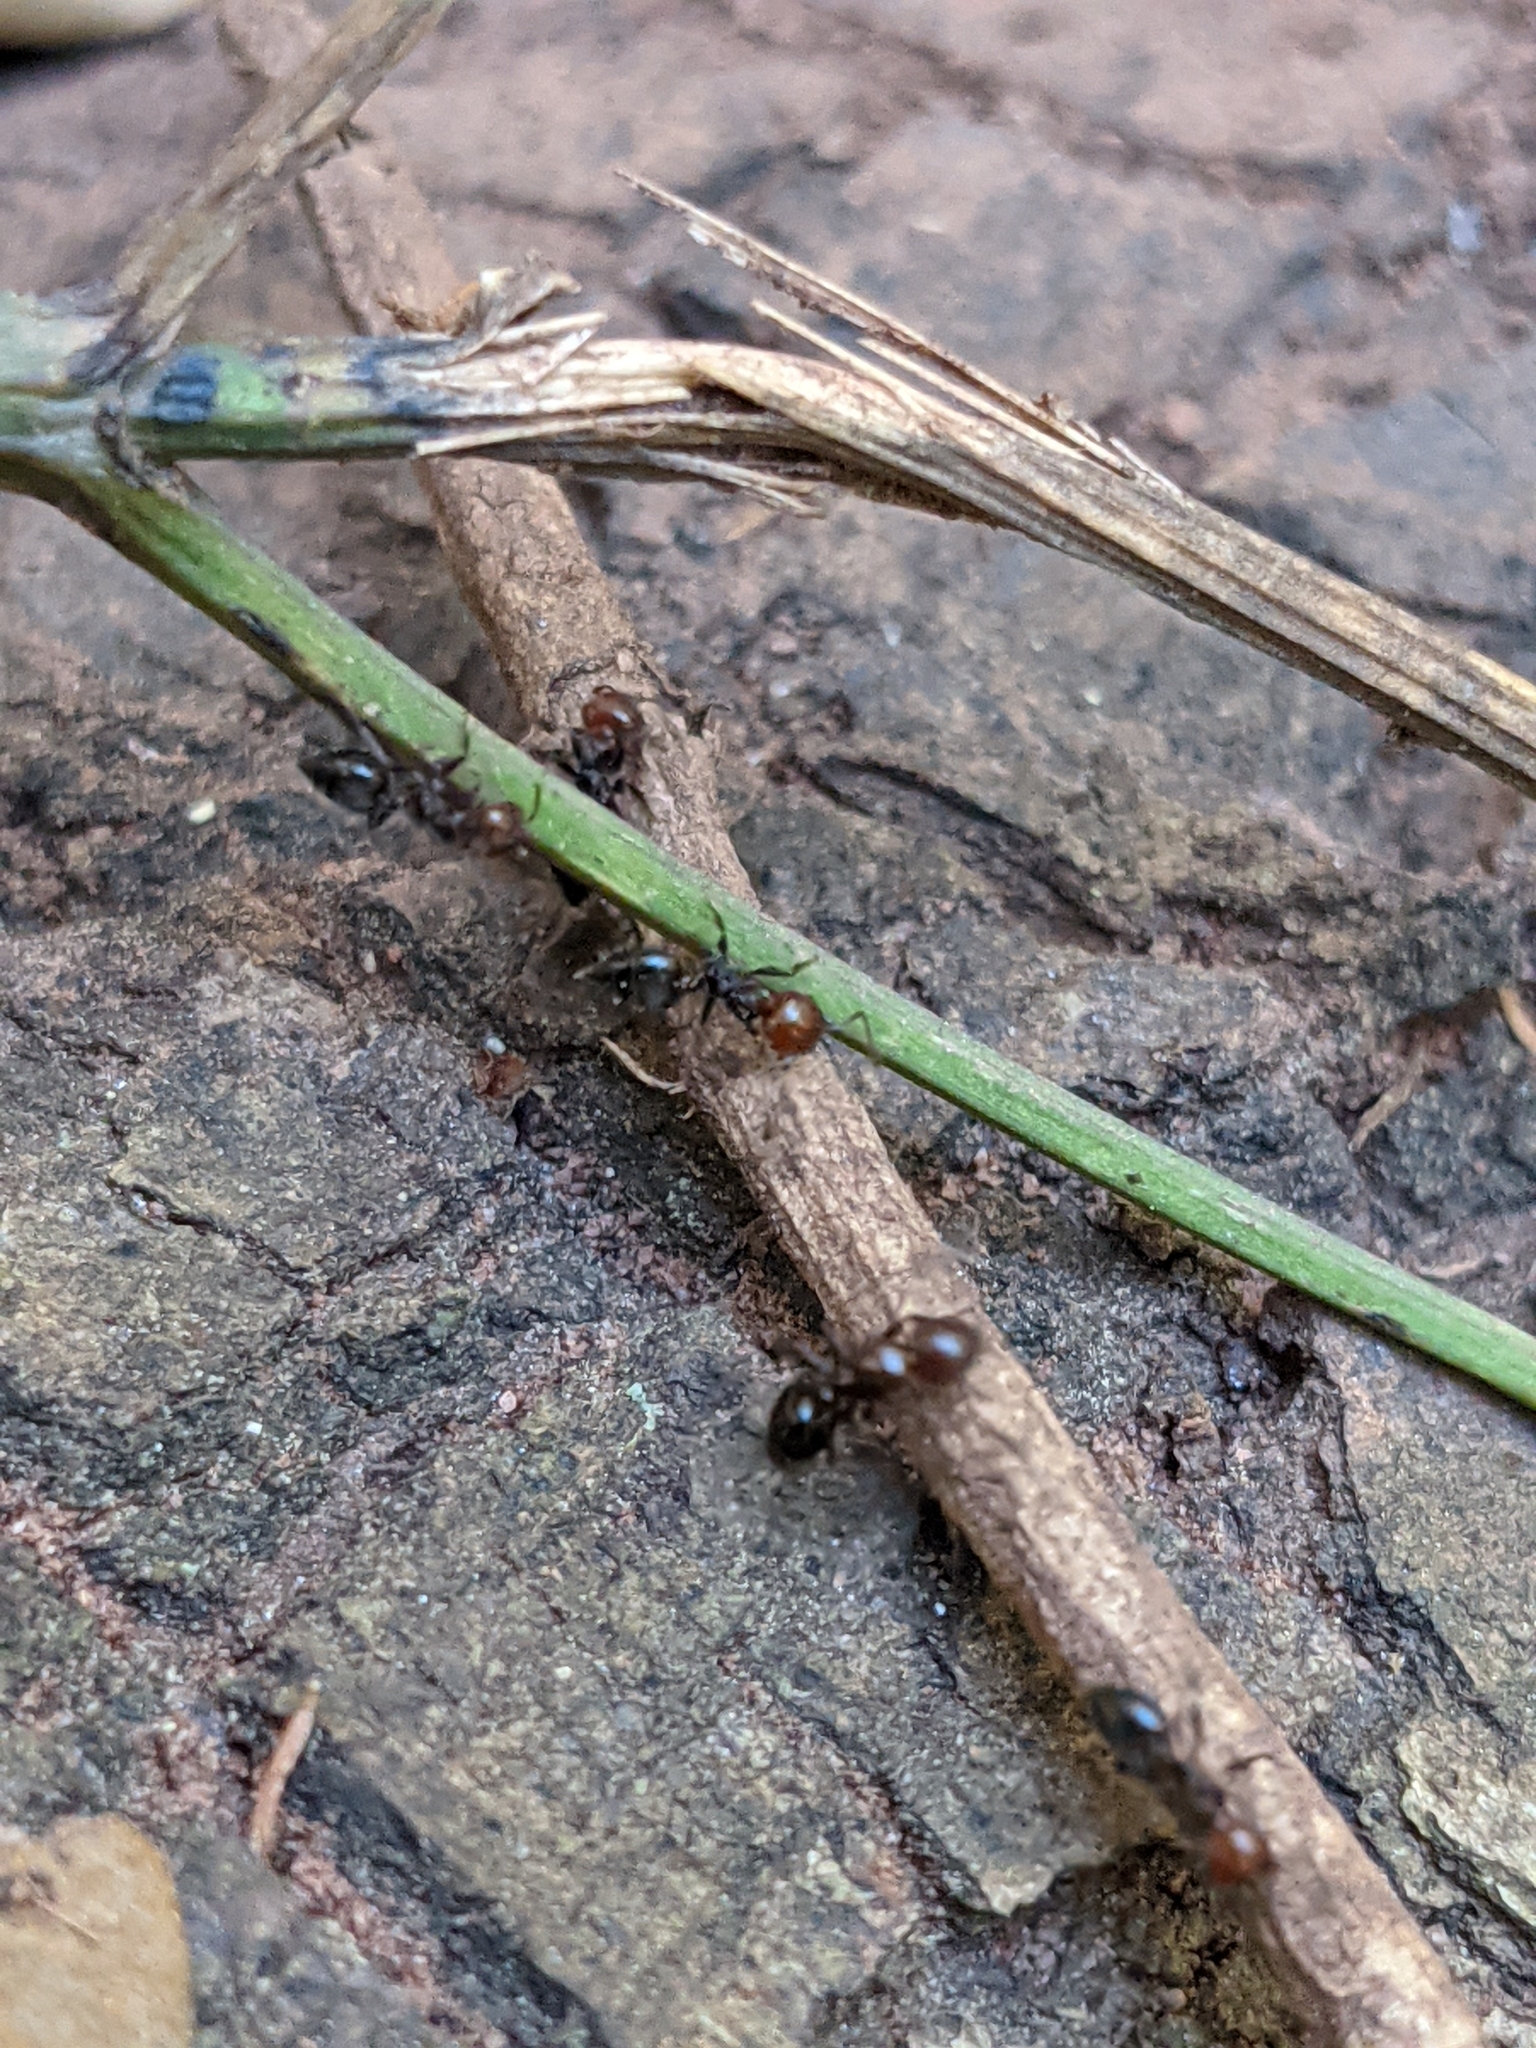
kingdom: Animalia
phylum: Arthropoda
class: Insecta
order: Hymenoptera
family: Formicidae
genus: Crematogaster
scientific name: Crematogaster scutellaris
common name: Fourmi du liège
